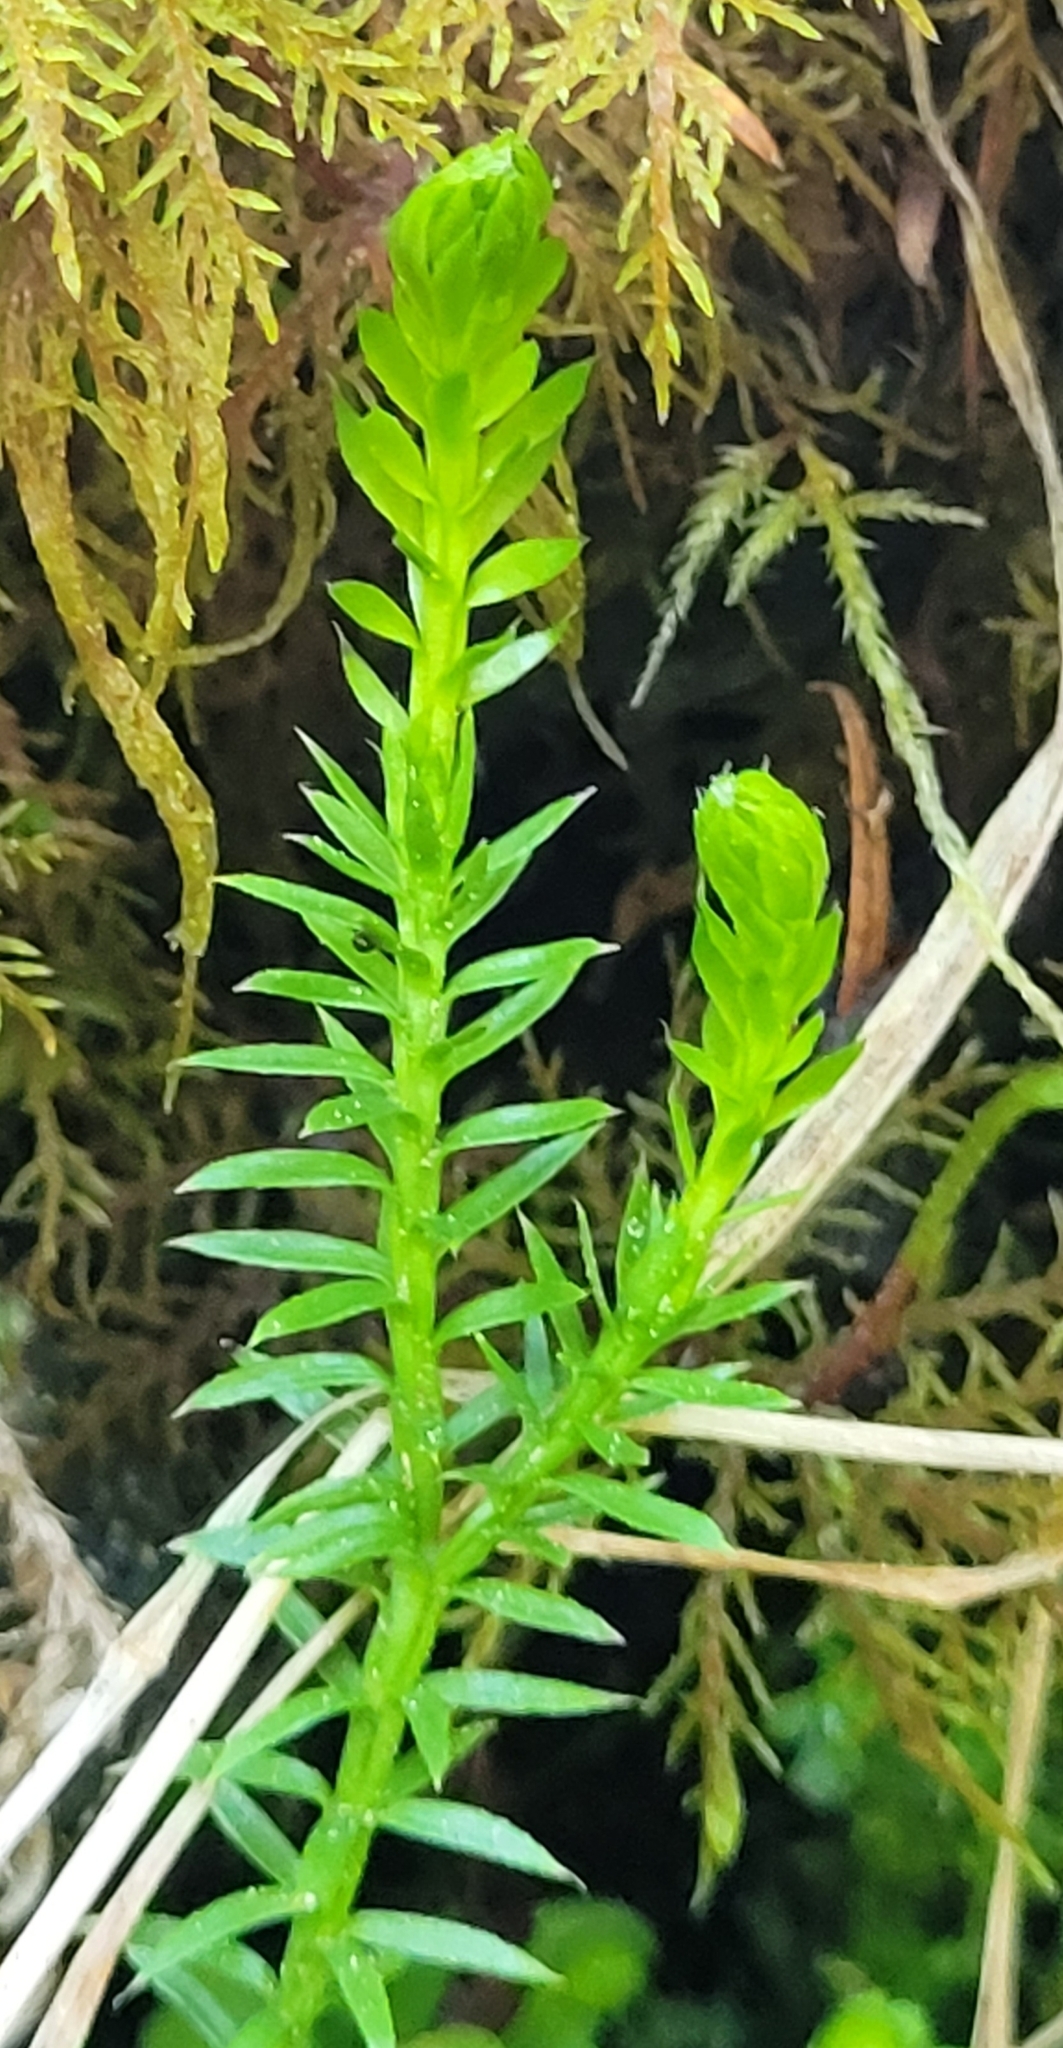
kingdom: Plantae
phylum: Tracheophyta
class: Lycopodiopsida
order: Lycopodiales
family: Lycopodiaceae
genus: Spinulum
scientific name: Spinulum annotinum
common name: Interrupted club-moss
